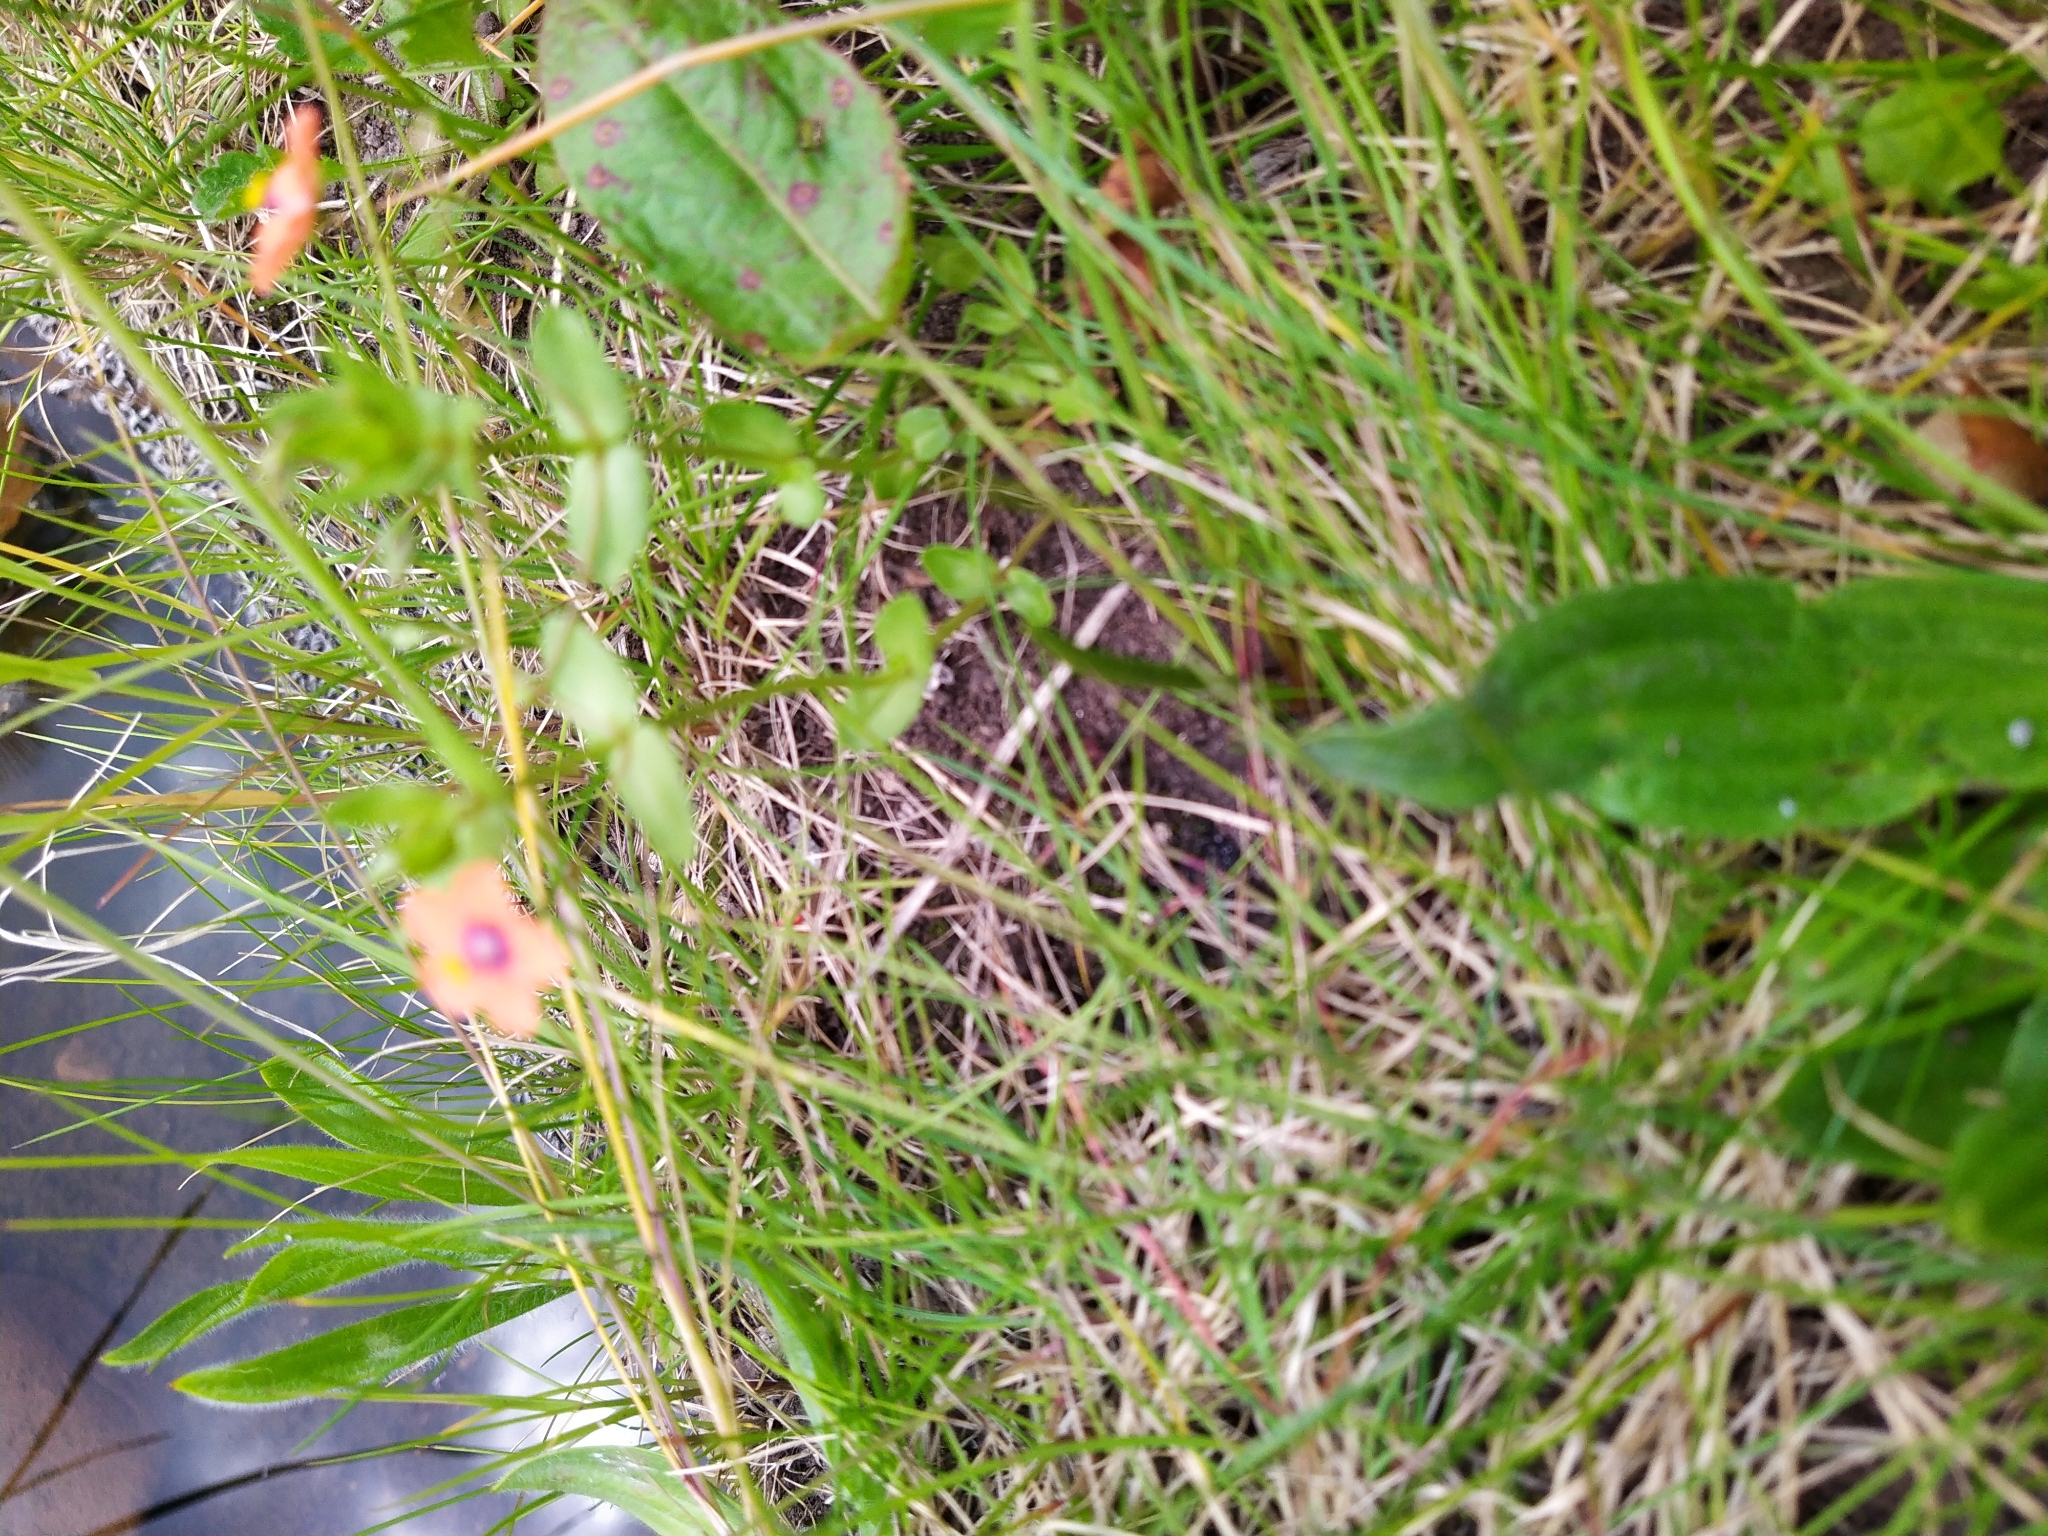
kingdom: Plantae
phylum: Tracheophyta
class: Magnoliopsida
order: Ericales
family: Primulaceae
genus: Lysimachia
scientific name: Lysimachia arvensis
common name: Scarlet pimpernel
